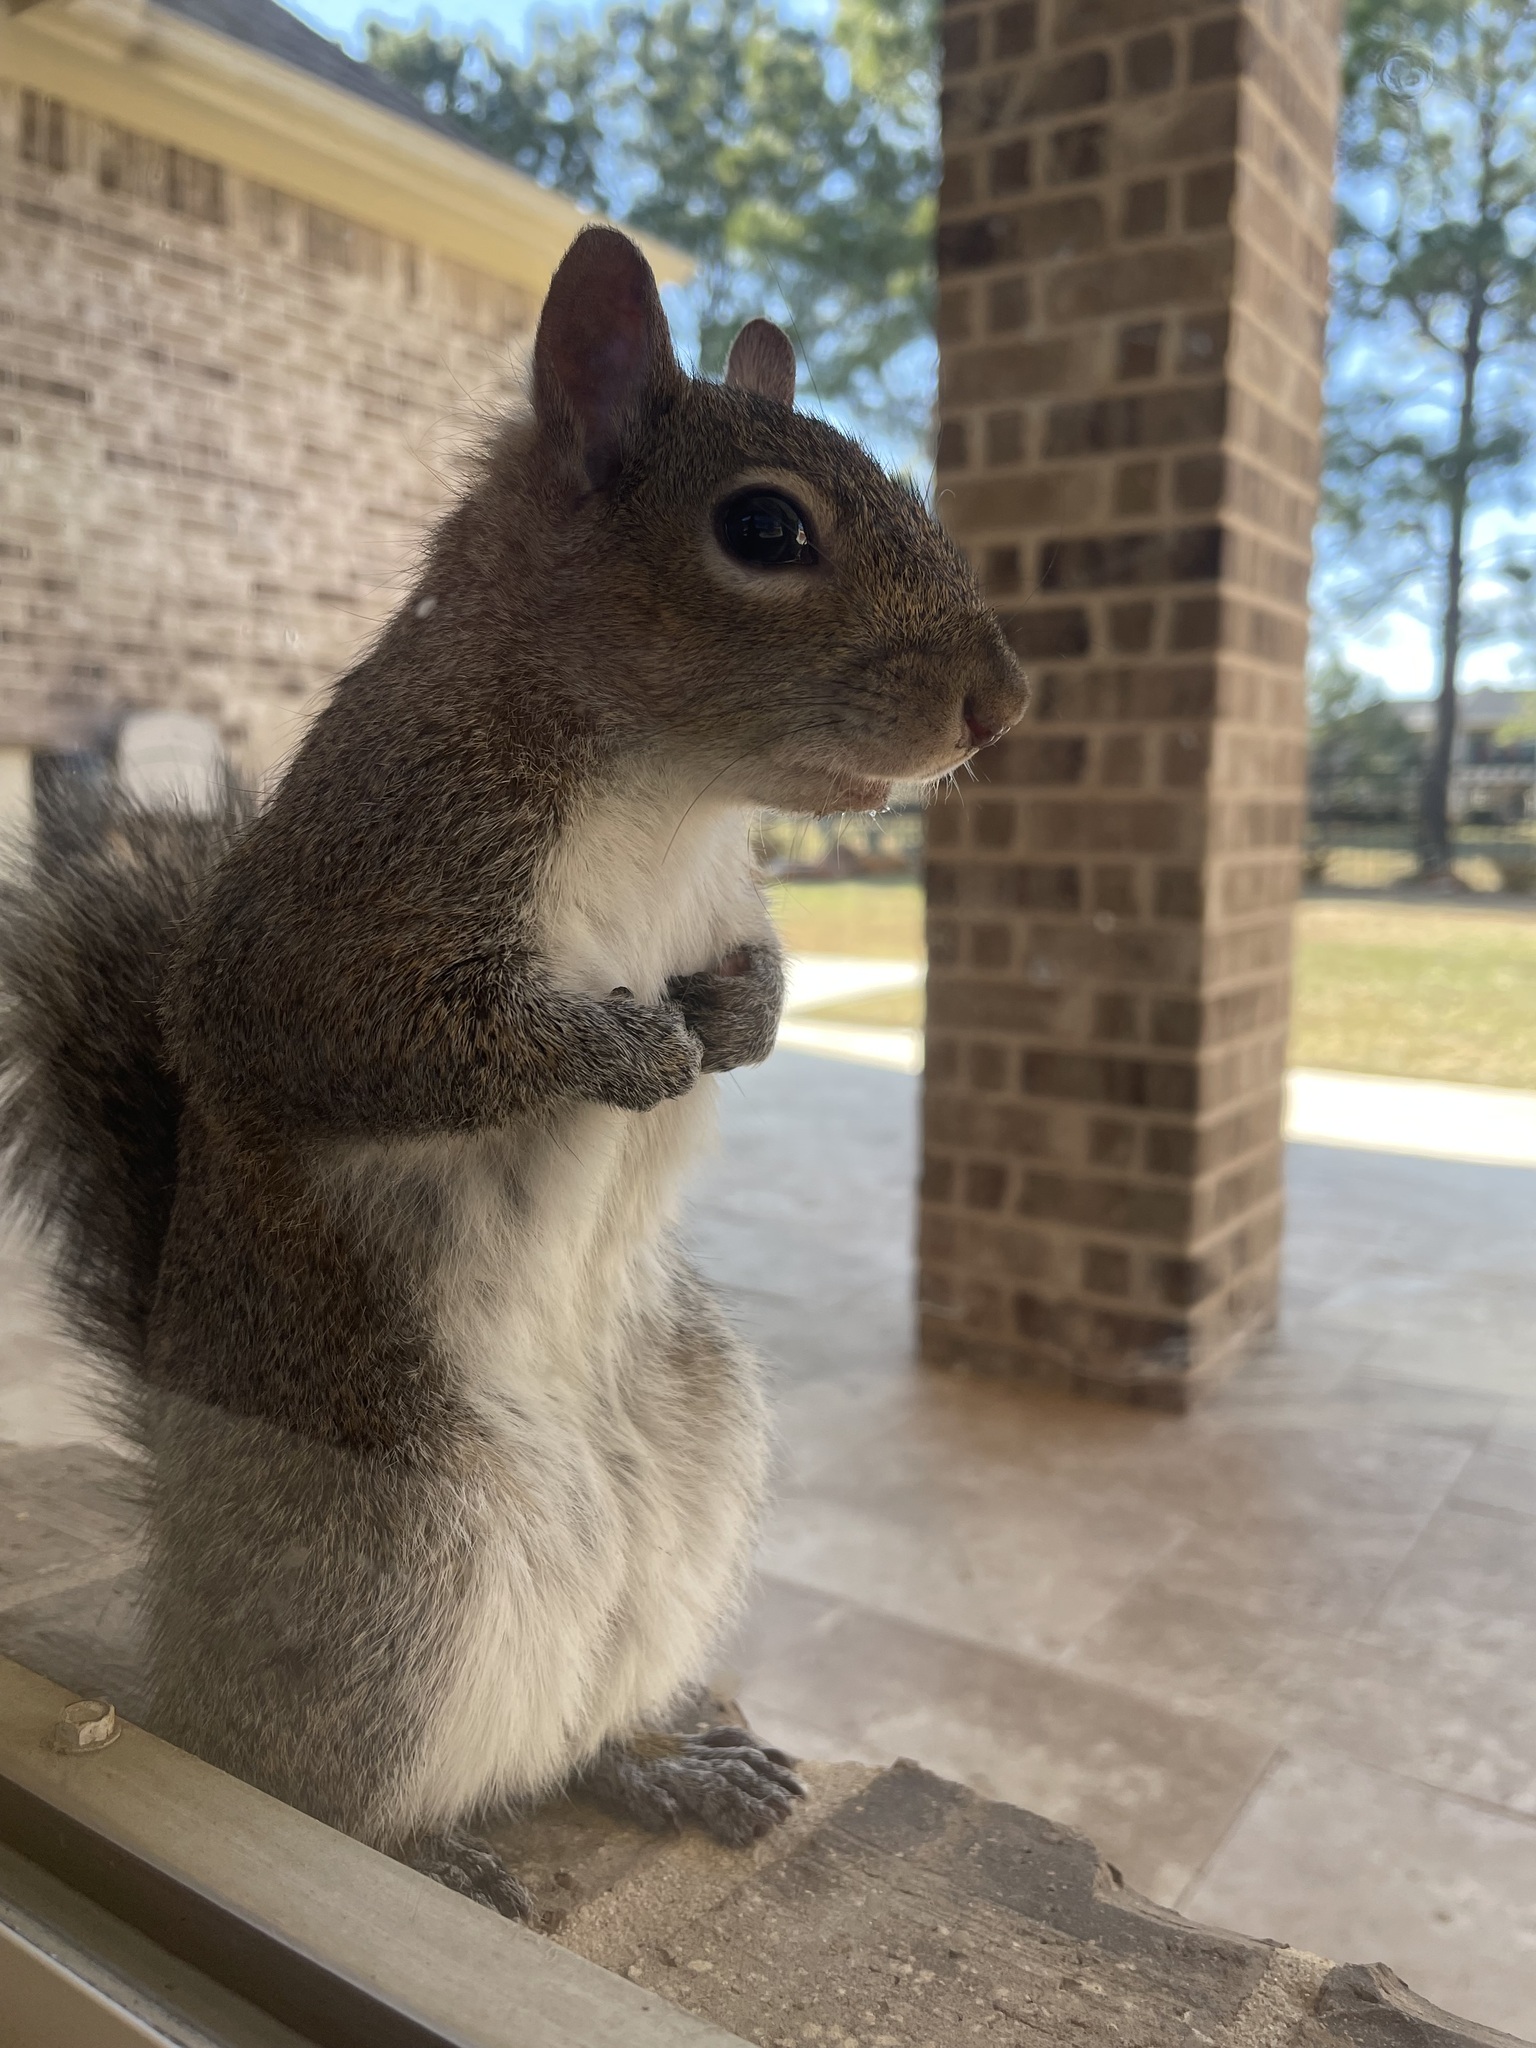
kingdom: Animalia
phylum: Chordata
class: Mammalia
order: Rodentia
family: Sciuridae
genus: Sciurus
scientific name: Sciurus carolinensis
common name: Eastern gray squirrel
